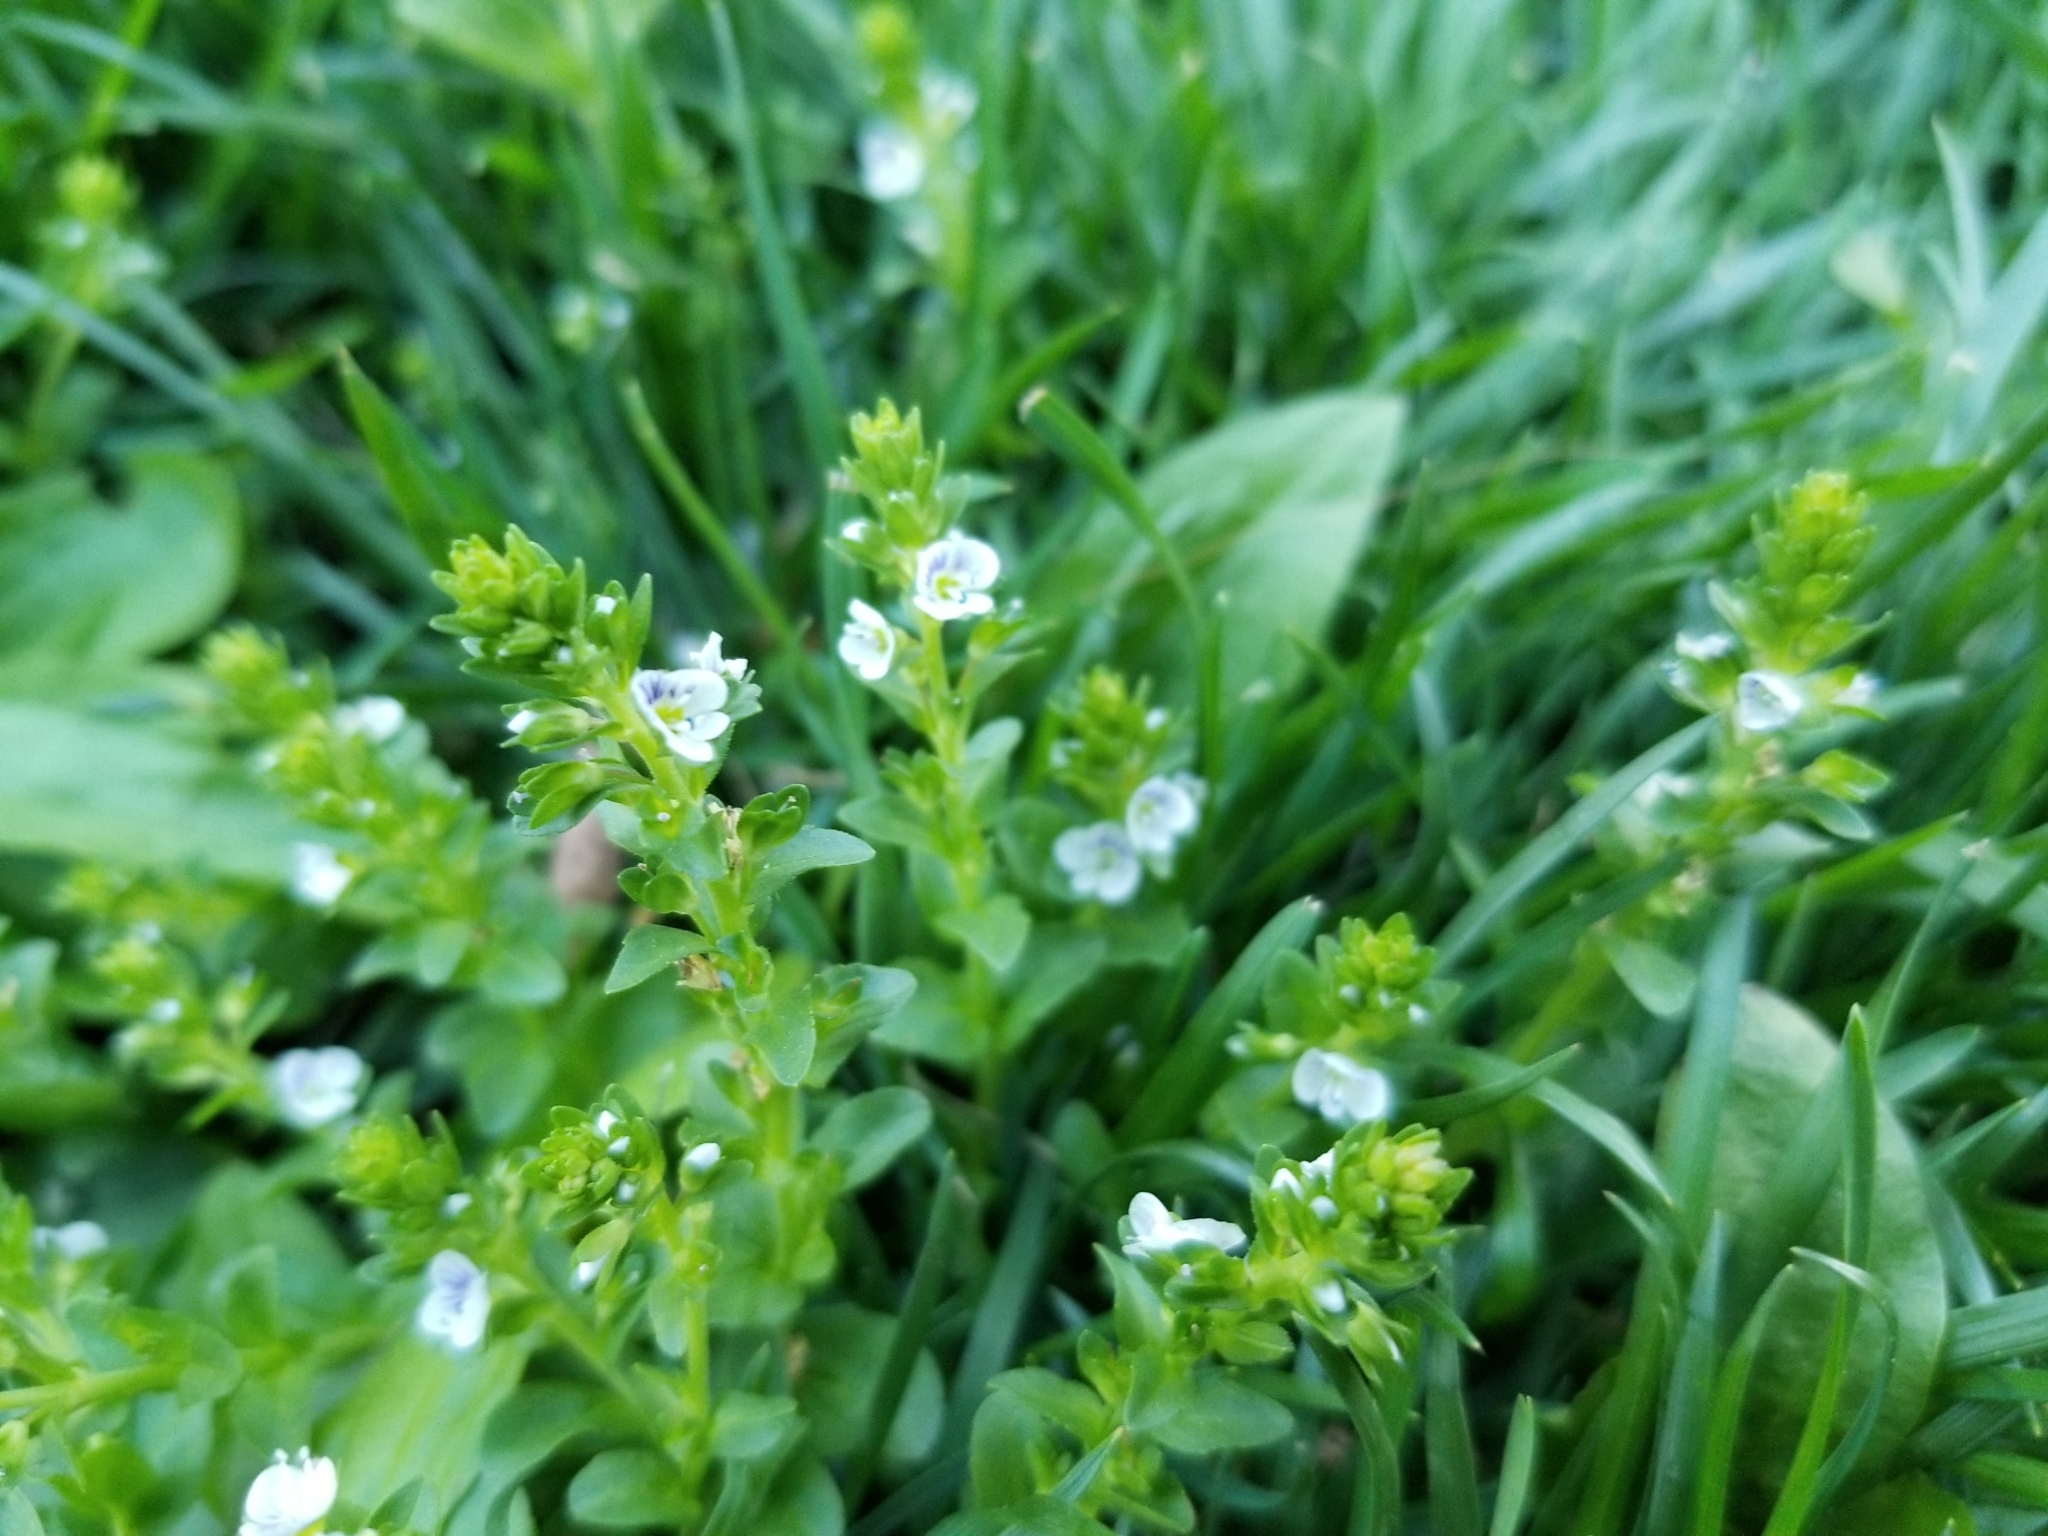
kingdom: Plantae
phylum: Tracheophyta
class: Magnoliopsida
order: Lamiales
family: Plantaginaceae
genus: Veronica
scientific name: Veronica serpyllifolia
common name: Thyme-leaved speedwell
